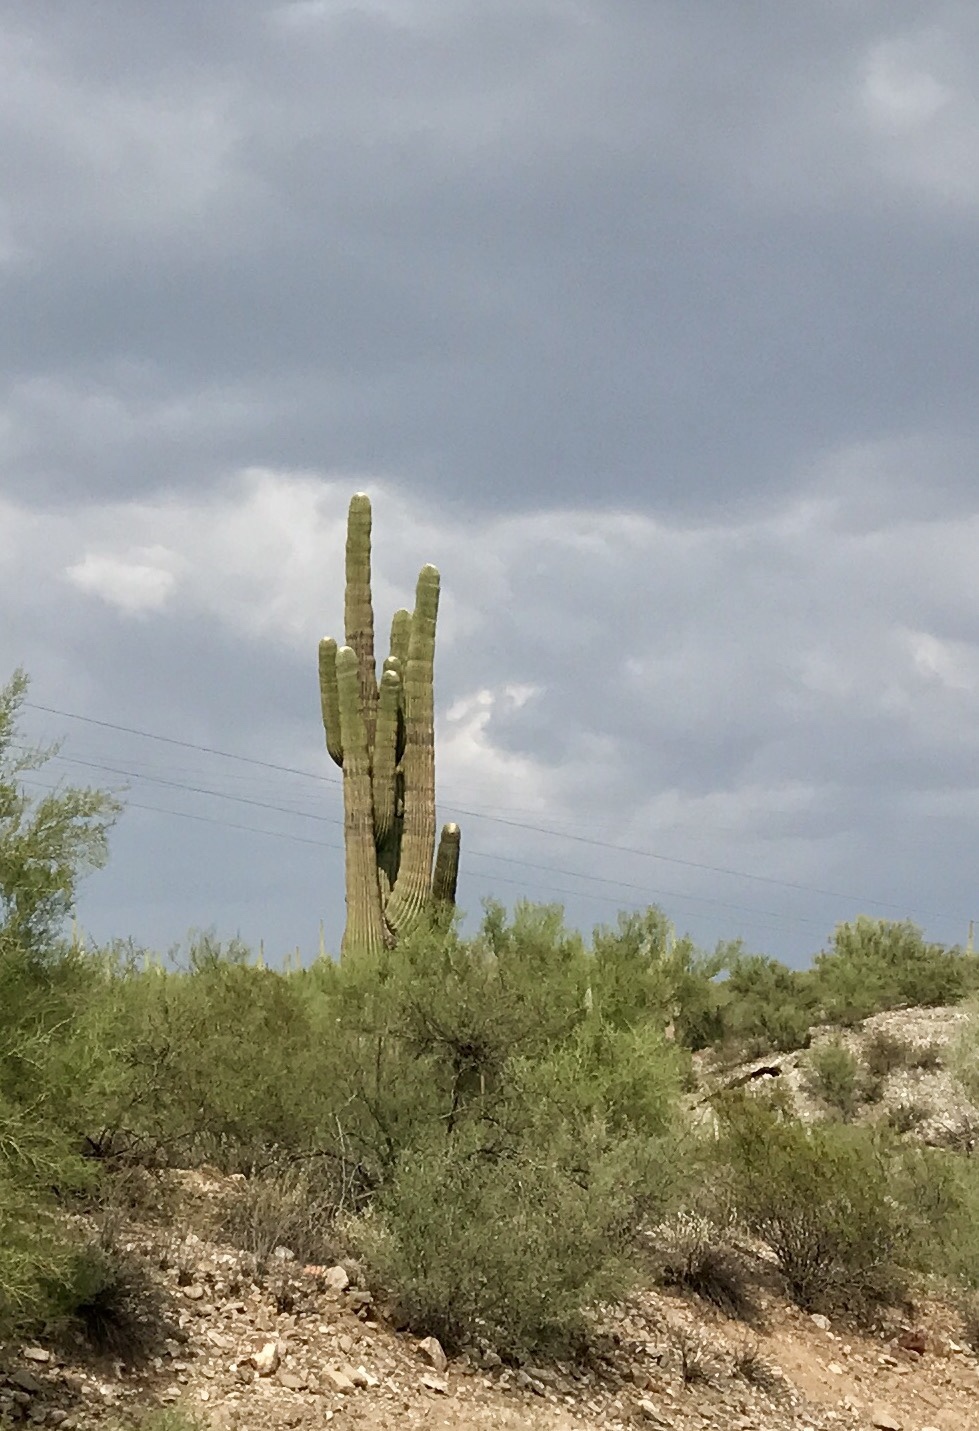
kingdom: Plantae
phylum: Tracheophyta
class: Magnoliopsida
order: Caryophyllales
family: Cactaceae
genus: Carnegiea
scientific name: Carnegiea gigantea
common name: Saguaro
